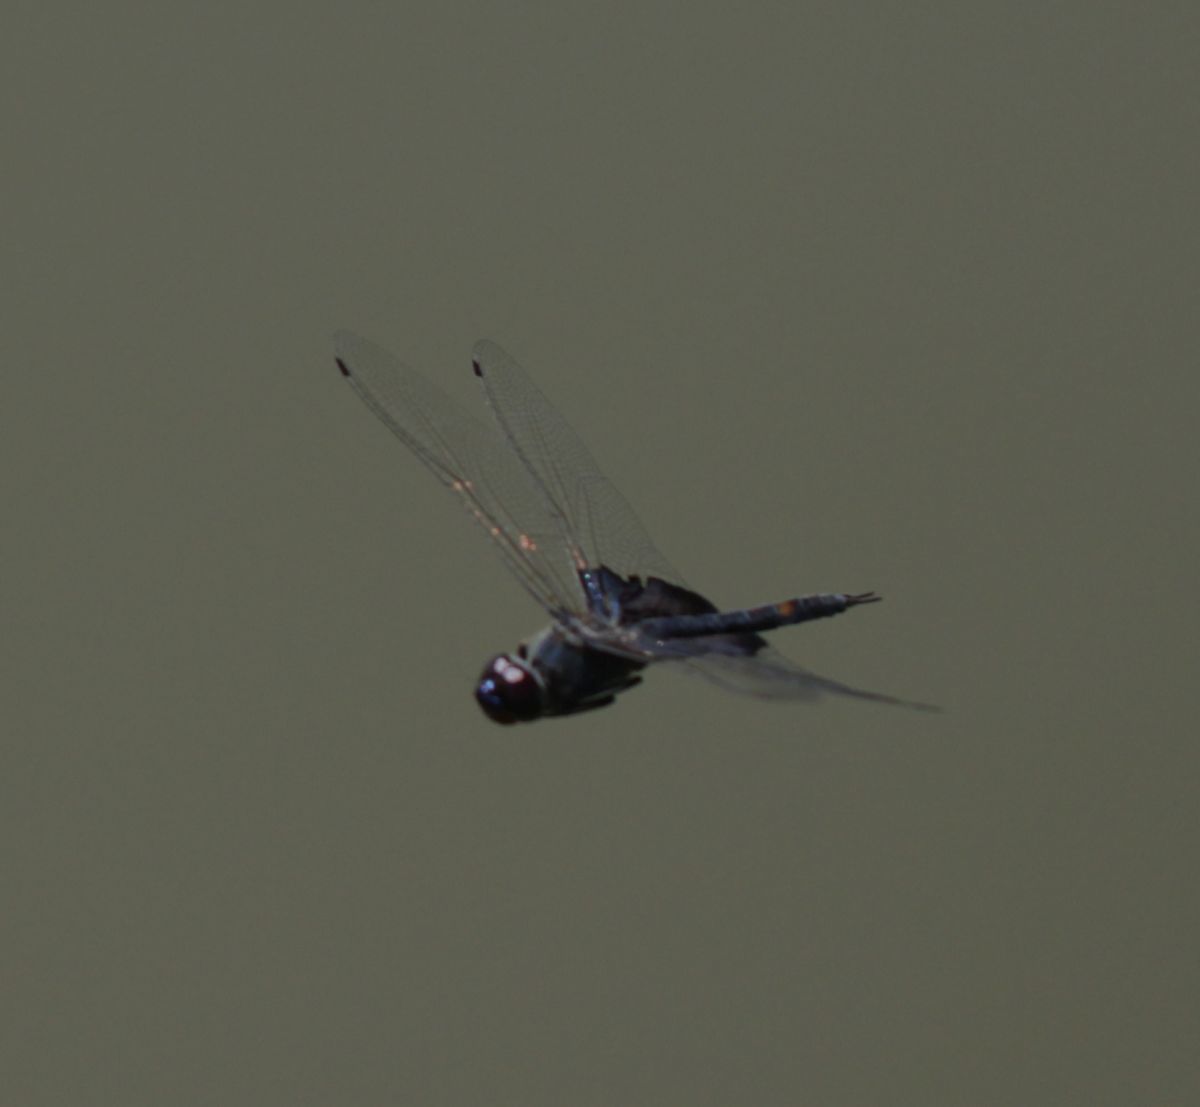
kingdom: Animalia
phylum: Arthropoda
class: Insecta
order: Odonata
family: Libellulidae
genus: Tramea
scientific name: Tramea lacerata
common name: Black saddlebags
